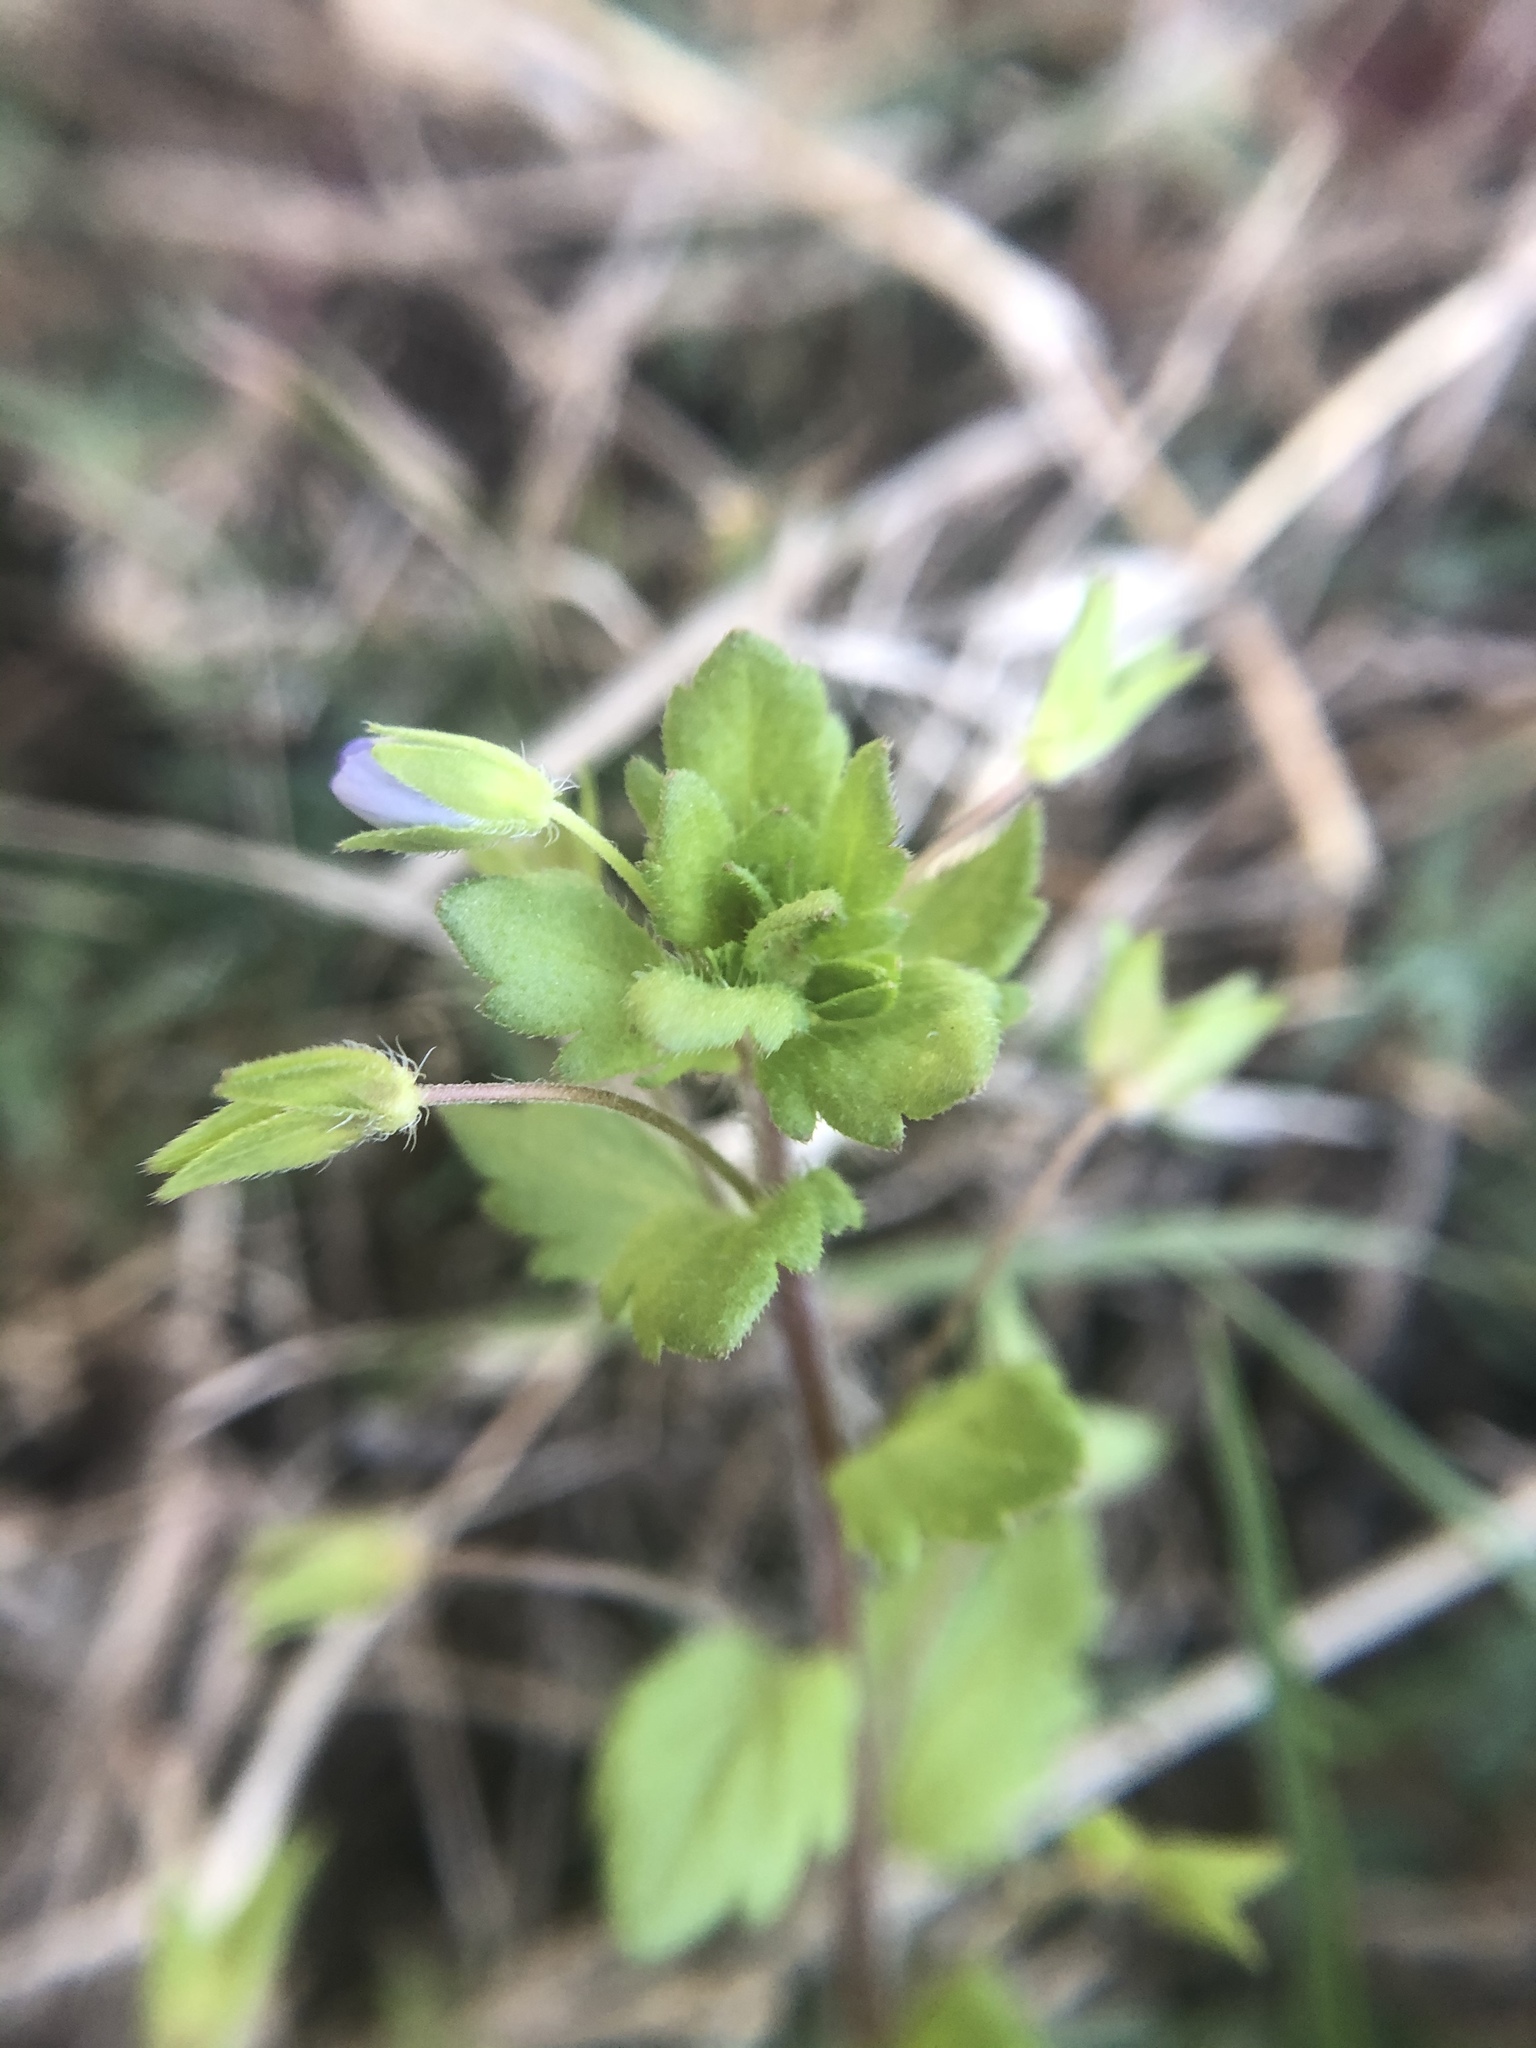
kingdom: Plantae
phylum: Tracheophyta
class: Magnoliopsida
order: Lamiales
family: Plantaginaceae
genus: Veronica
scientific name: Veronica persica
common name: Common field-speedwell
